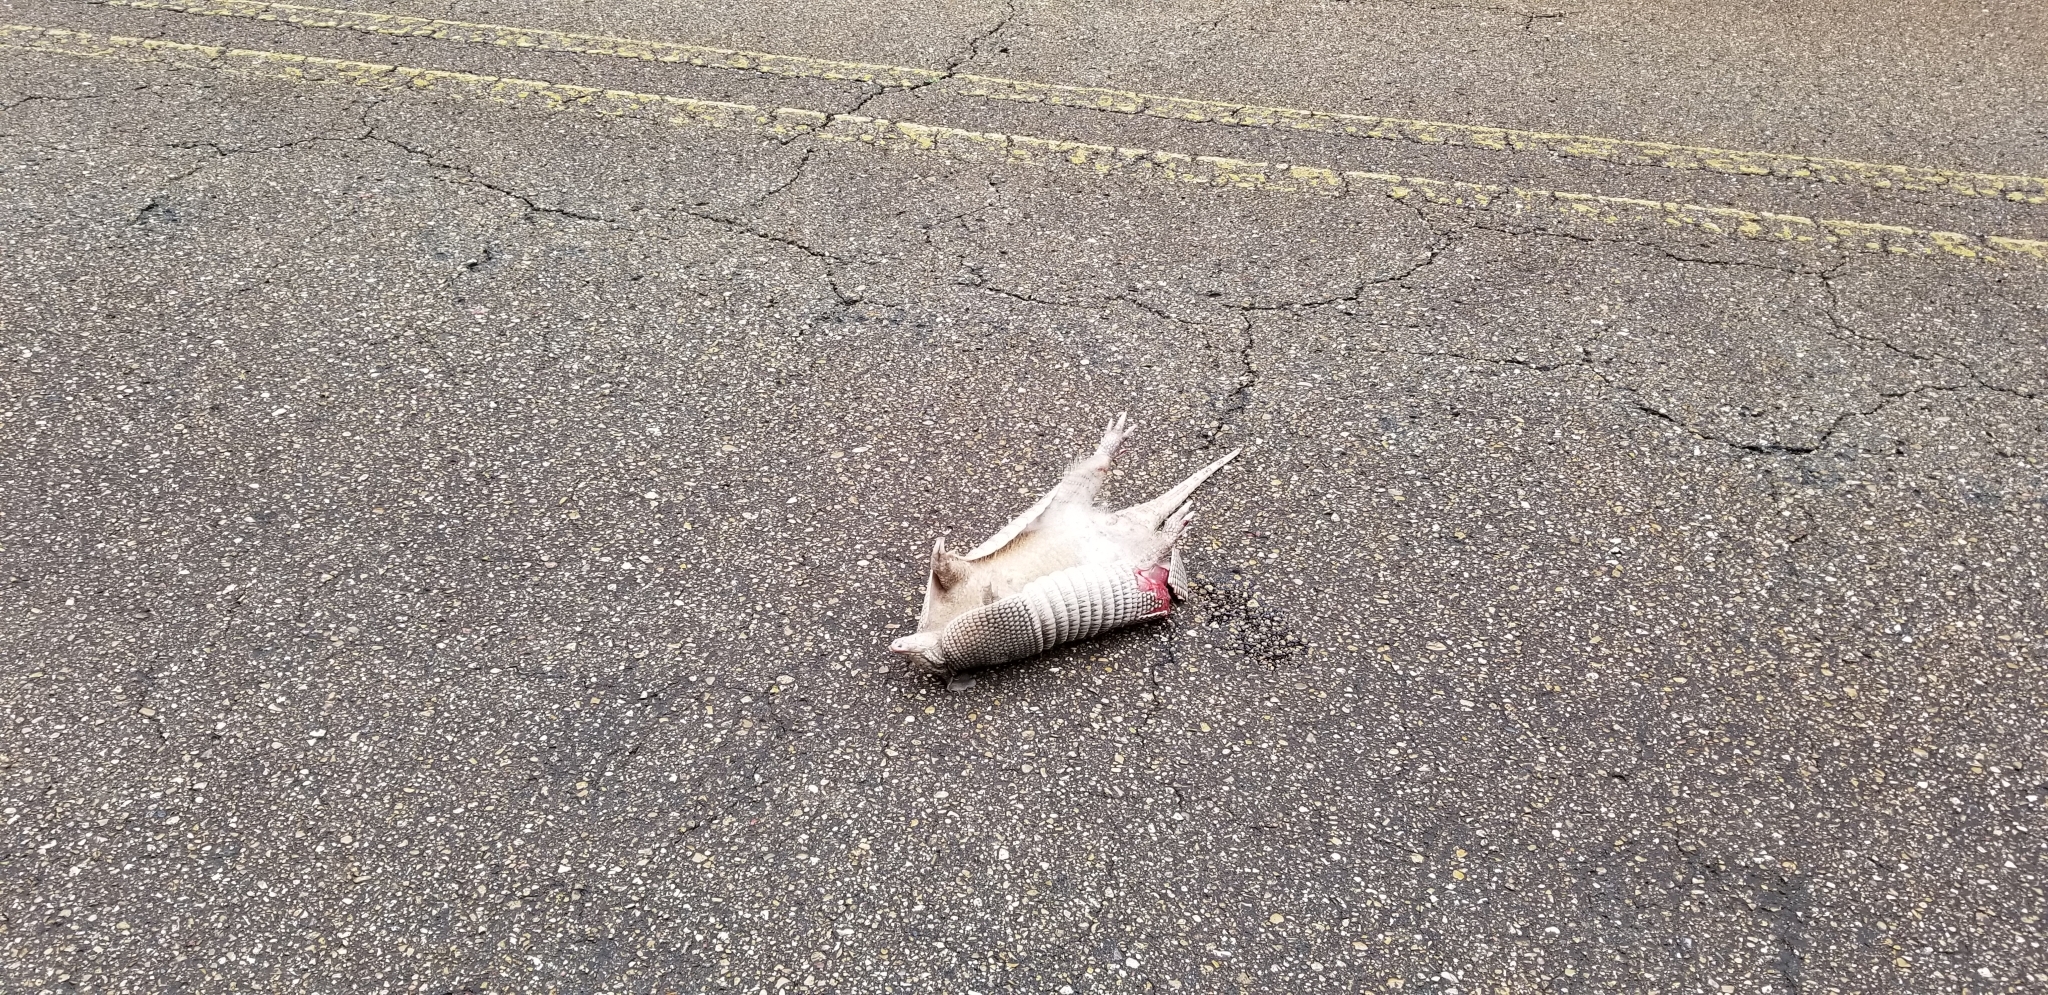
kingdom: Animalia
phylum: Chordata
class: Mammalia
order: Cingulata
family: Dasypodidae
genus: Dasypus
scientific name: Dasypus novemcinctus
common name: Nine-banded armadillo
